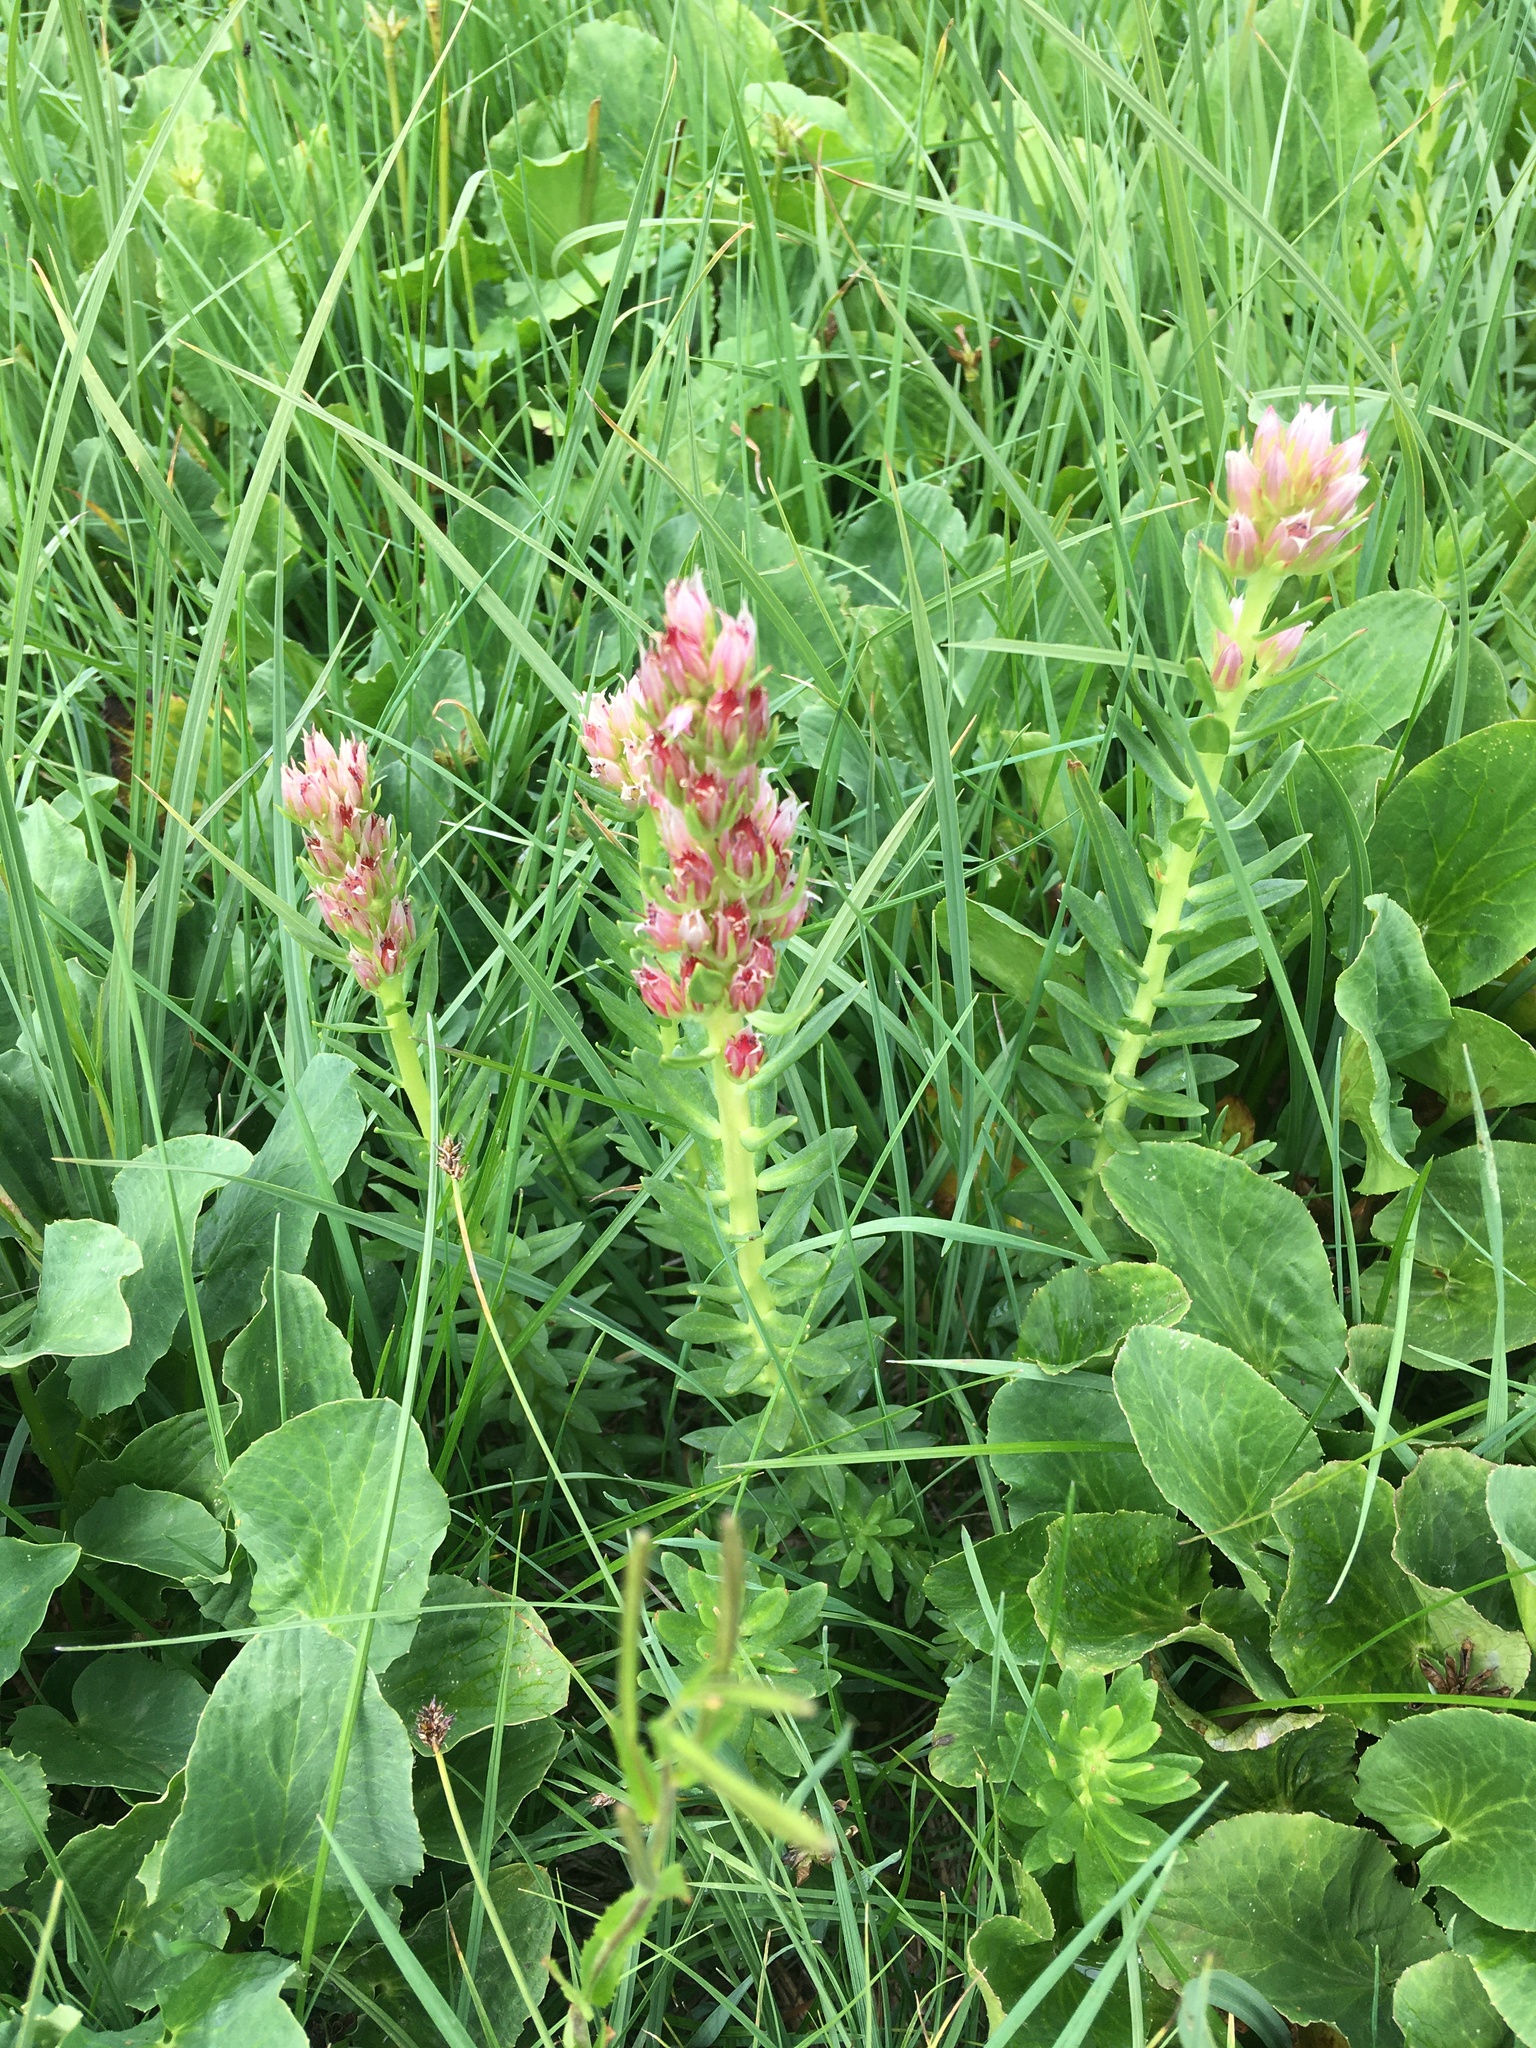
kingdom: Plantae
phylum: Tracheophyta
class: Magnoliopsida
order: Saxifragales
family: Crassulaceae
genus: Rhodiola
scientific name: Rhodiola rhodantha
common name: Red orpine
